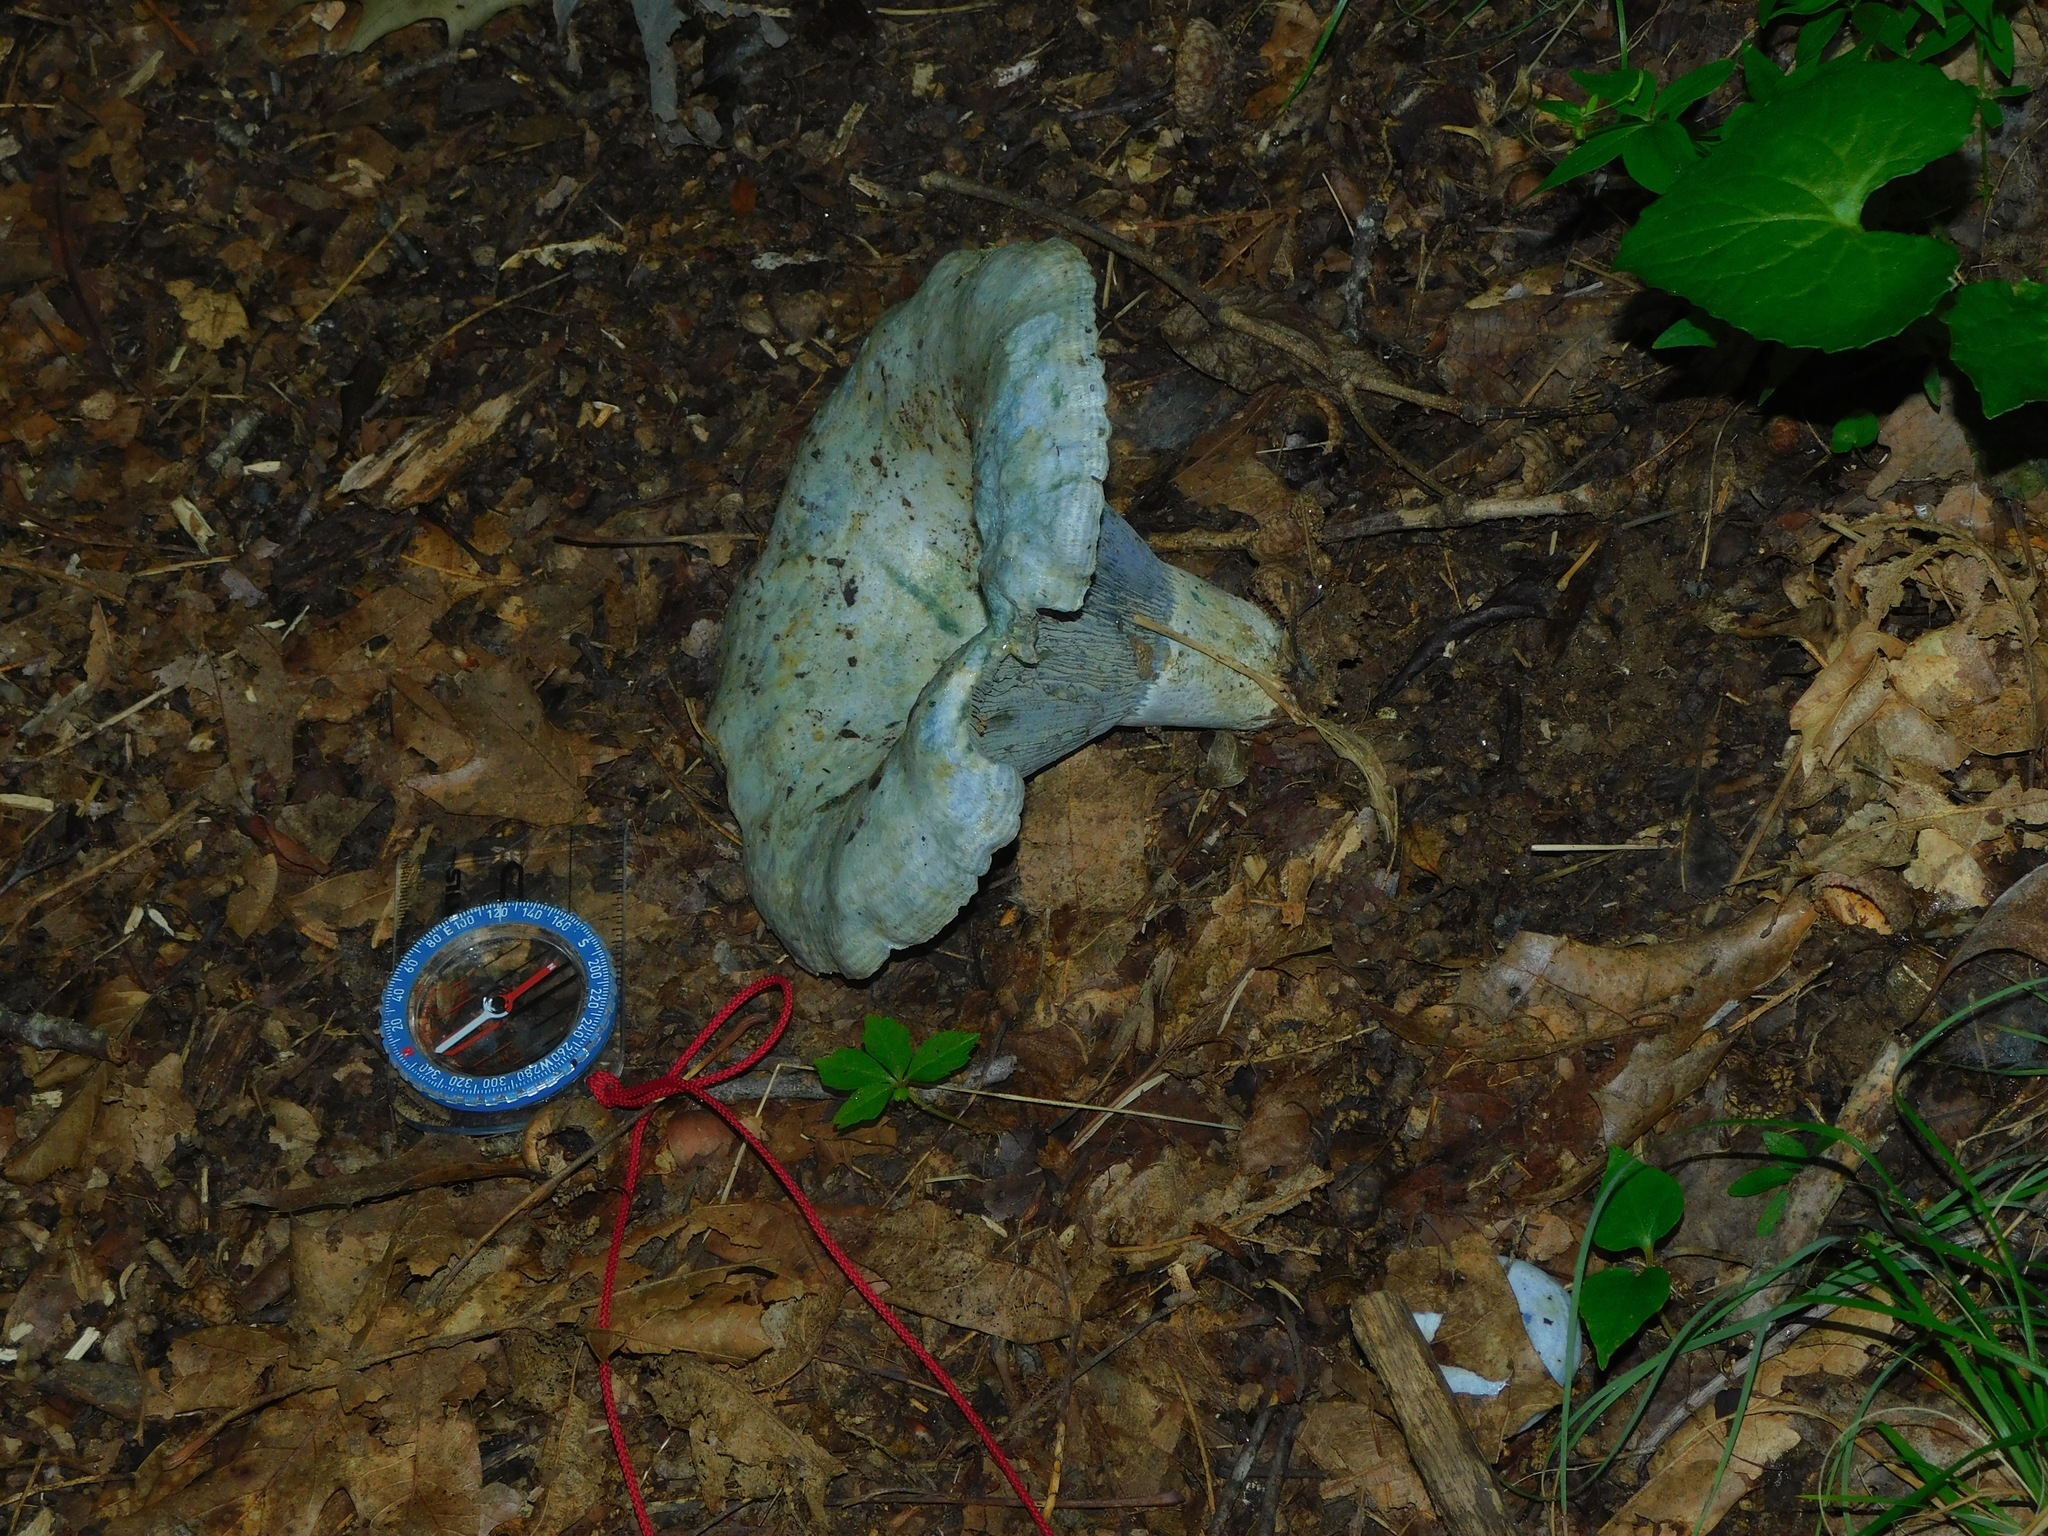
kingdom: Fungi
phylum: Basidiomycota
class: Agaricomycetes
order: Russulales
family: Russulaceae
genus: Lactarius
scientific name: Lactarius indigo
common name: Indigo milk cap
